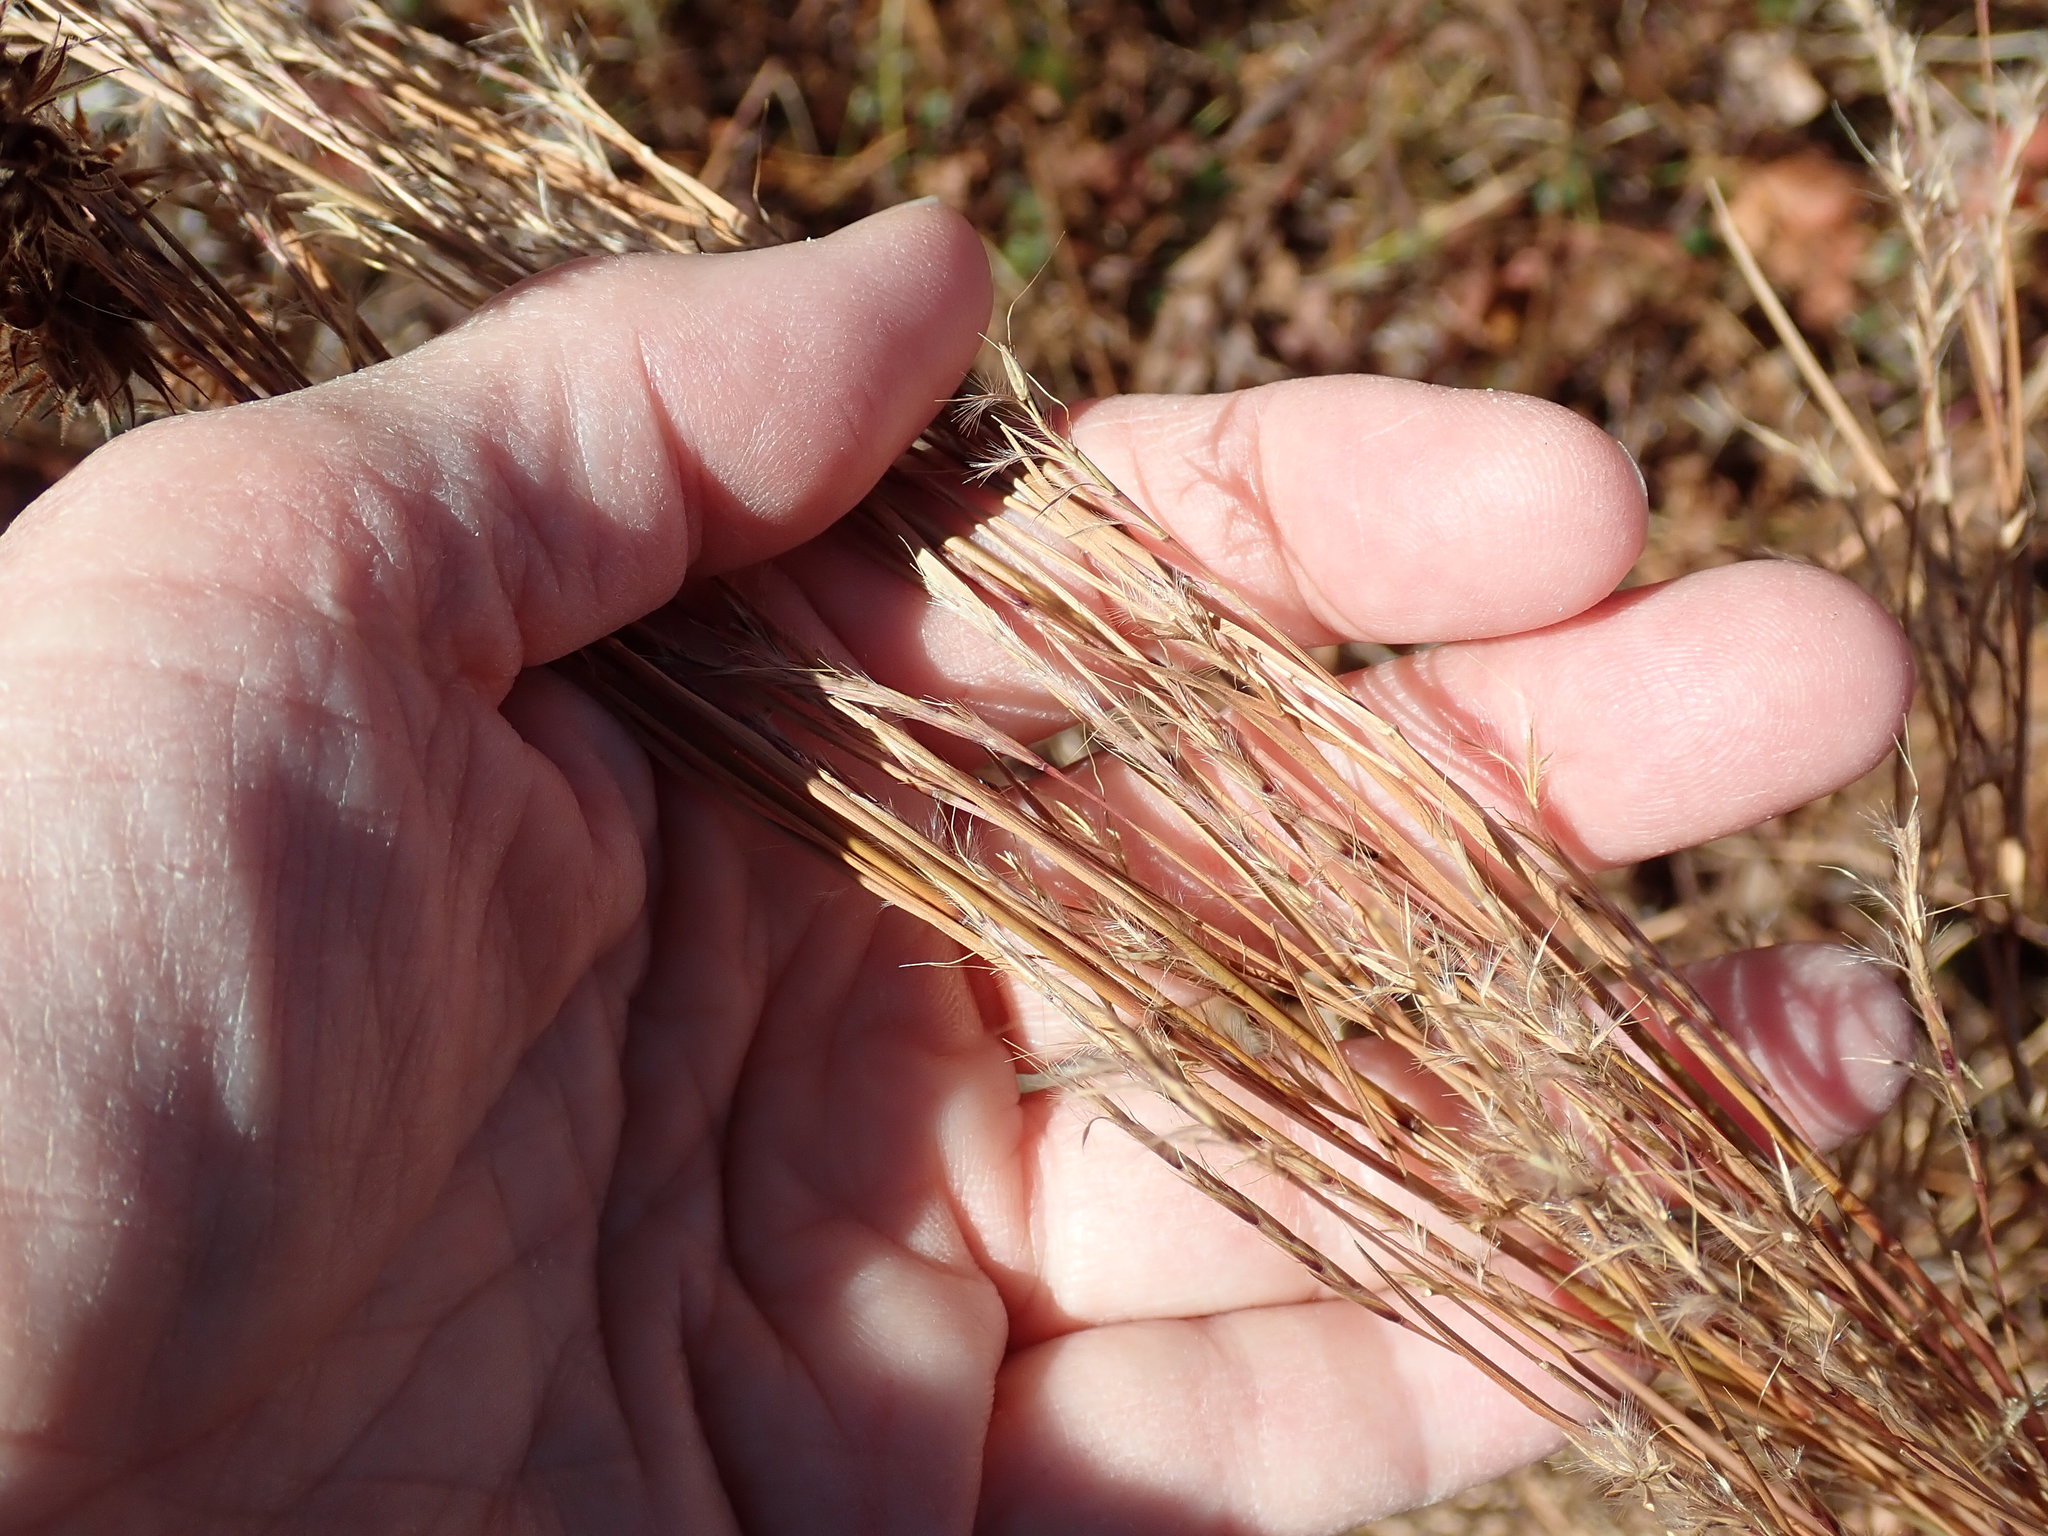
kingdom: Plantae
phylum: Tracheophyta
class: Liliopsida
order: Poales
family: Poaceae
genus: Schizachyrium
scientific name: Schizachyrium scoparium
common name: Little bluestem
